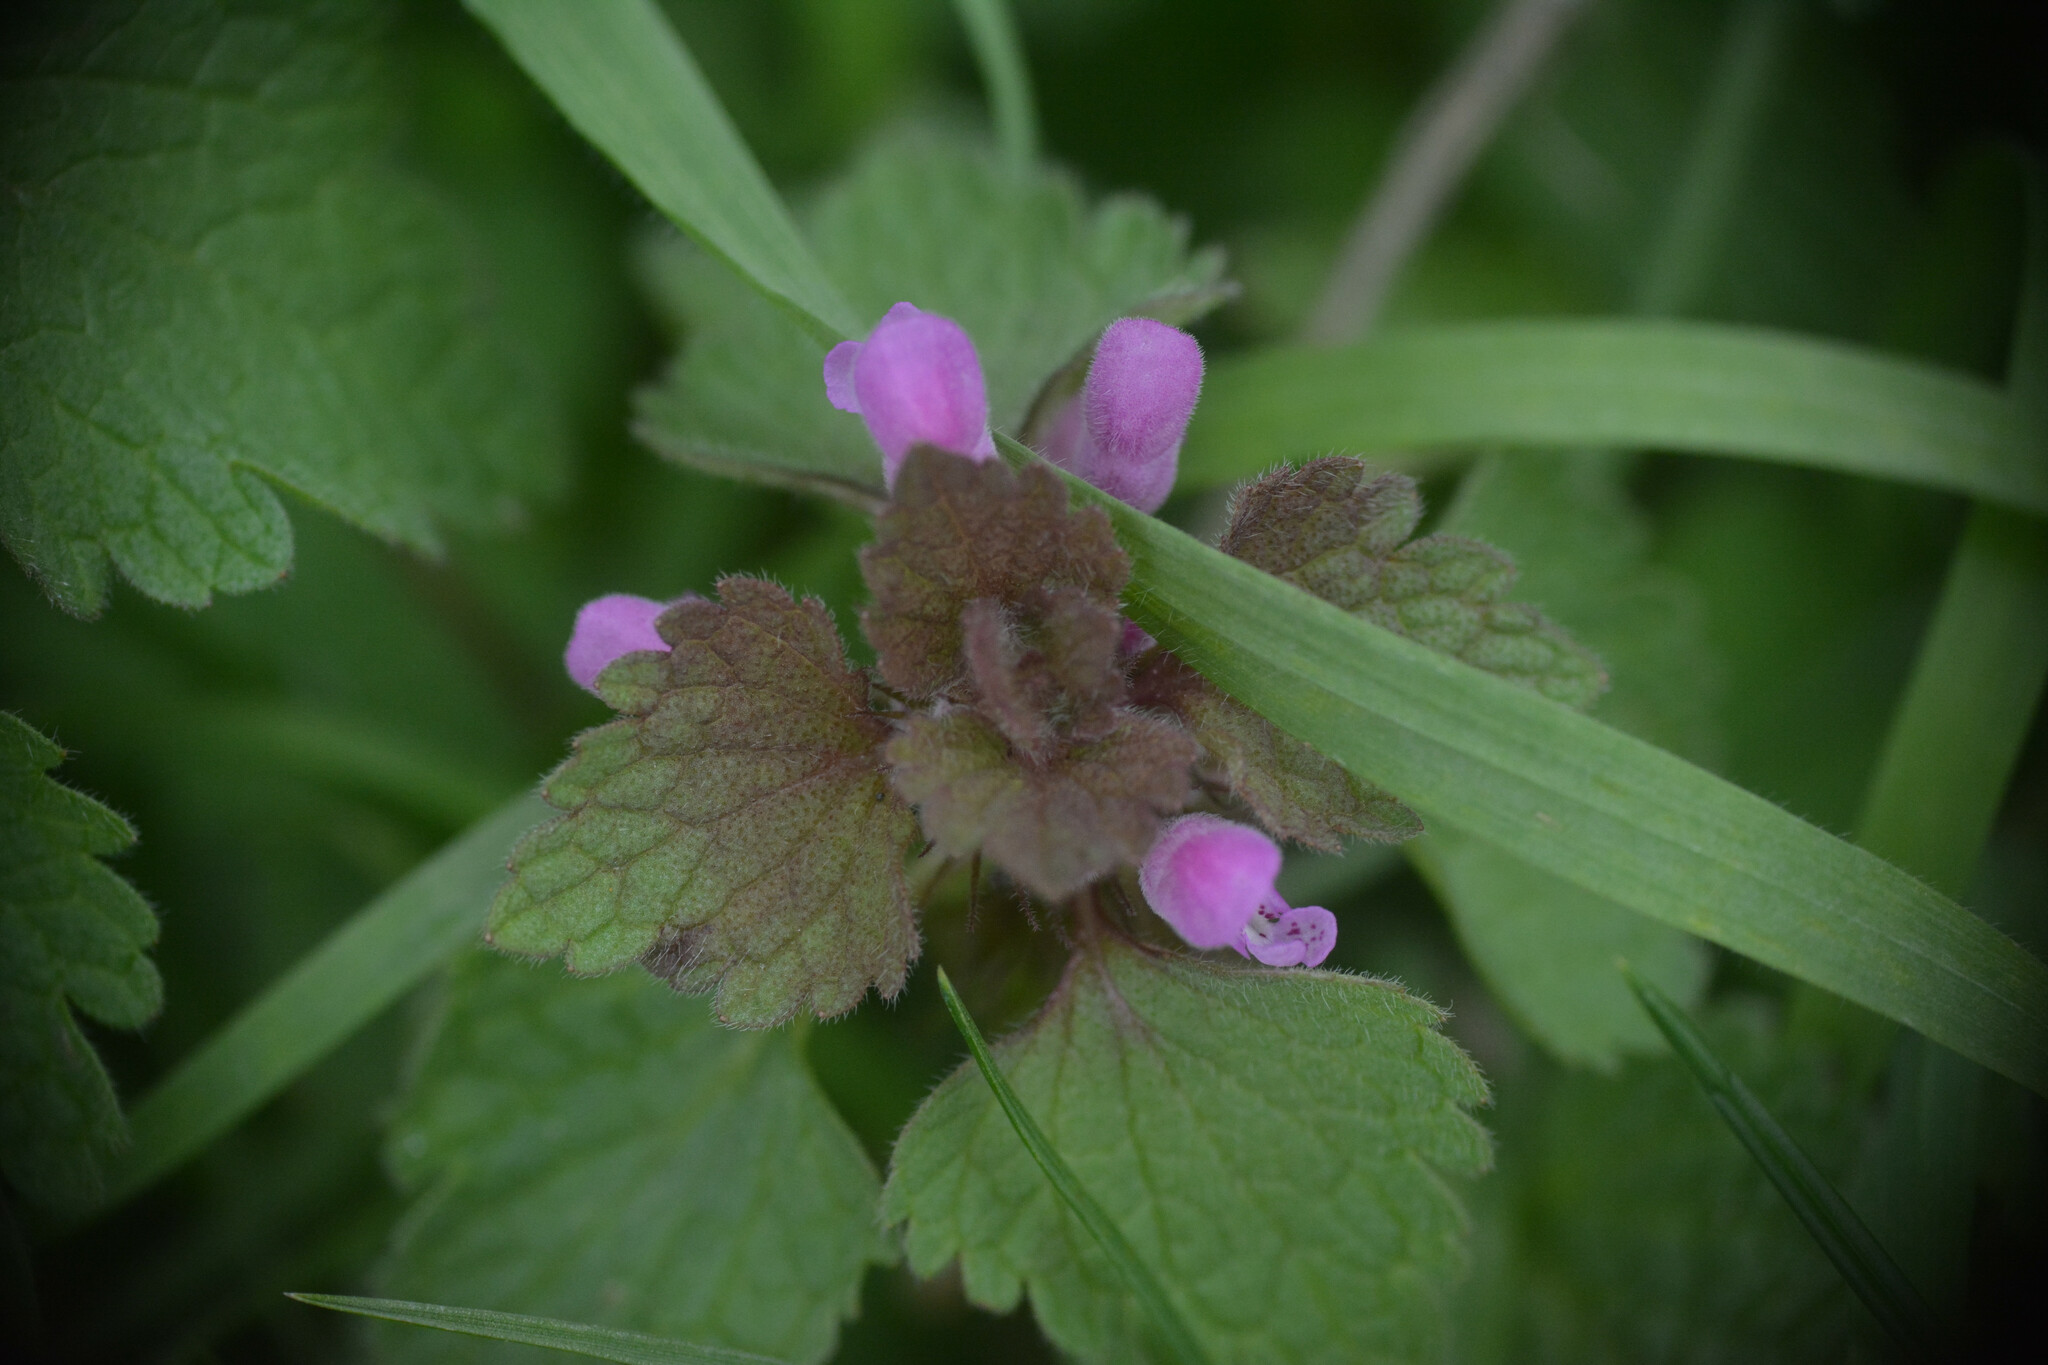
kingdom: Plantae
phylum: Tracheophyta
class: Magnoliopsida
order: Lamiales
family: Lamiaceae
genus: Lamium
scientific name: Lamium purpureum
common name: Red dead-nettle
